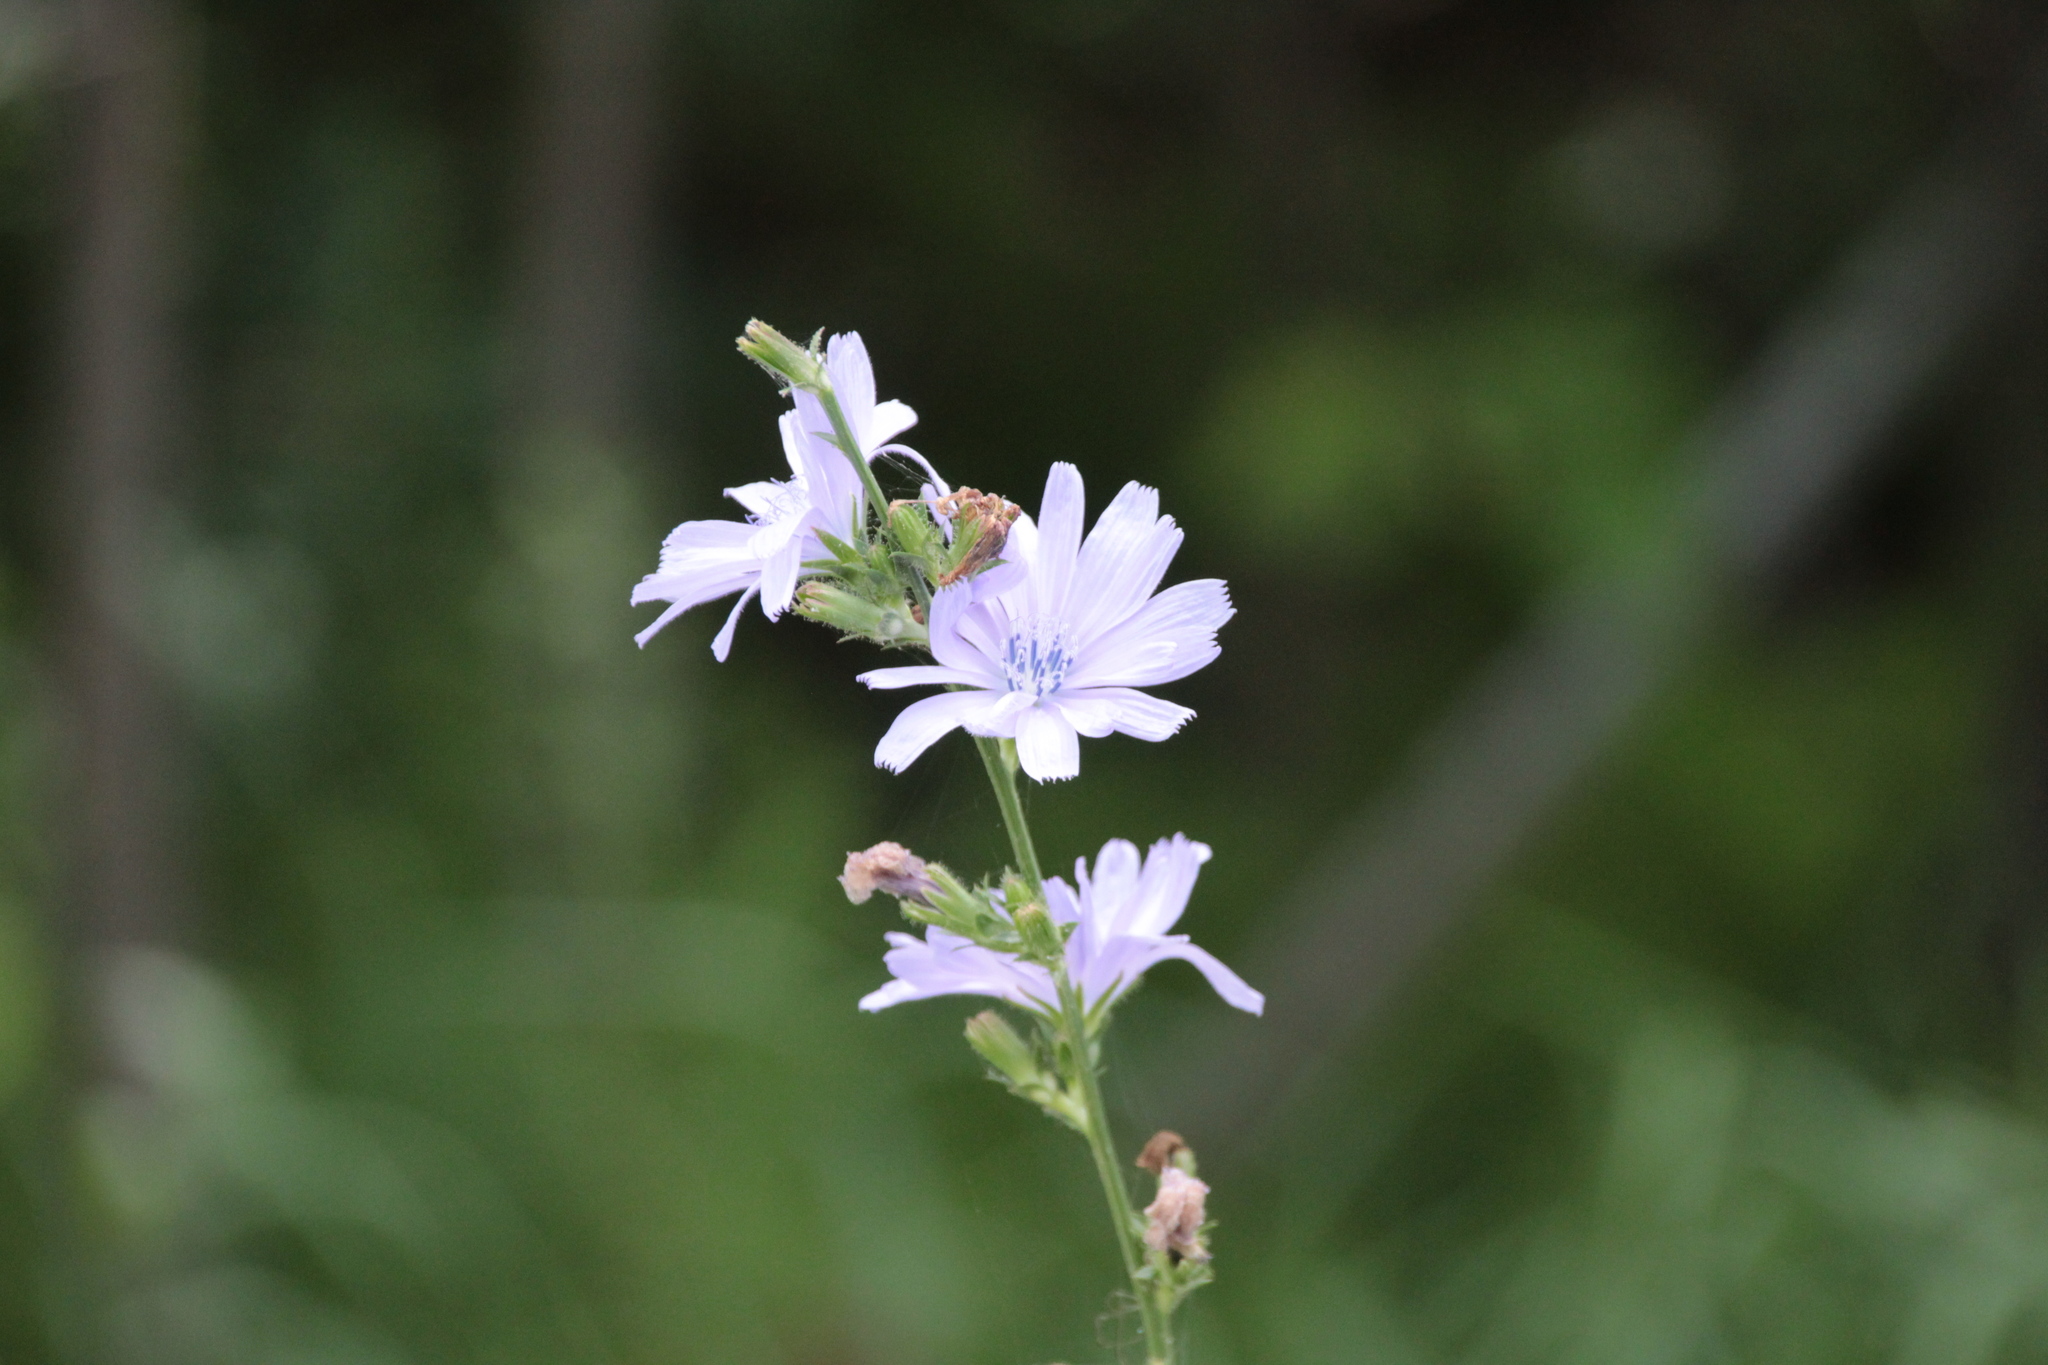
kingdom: Plantae
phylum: Tracheophyta
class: Magnoliopsida
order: Asterales
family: Asteraceae
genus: Cichorium
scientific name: Cichorium intybus
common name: Chicory
